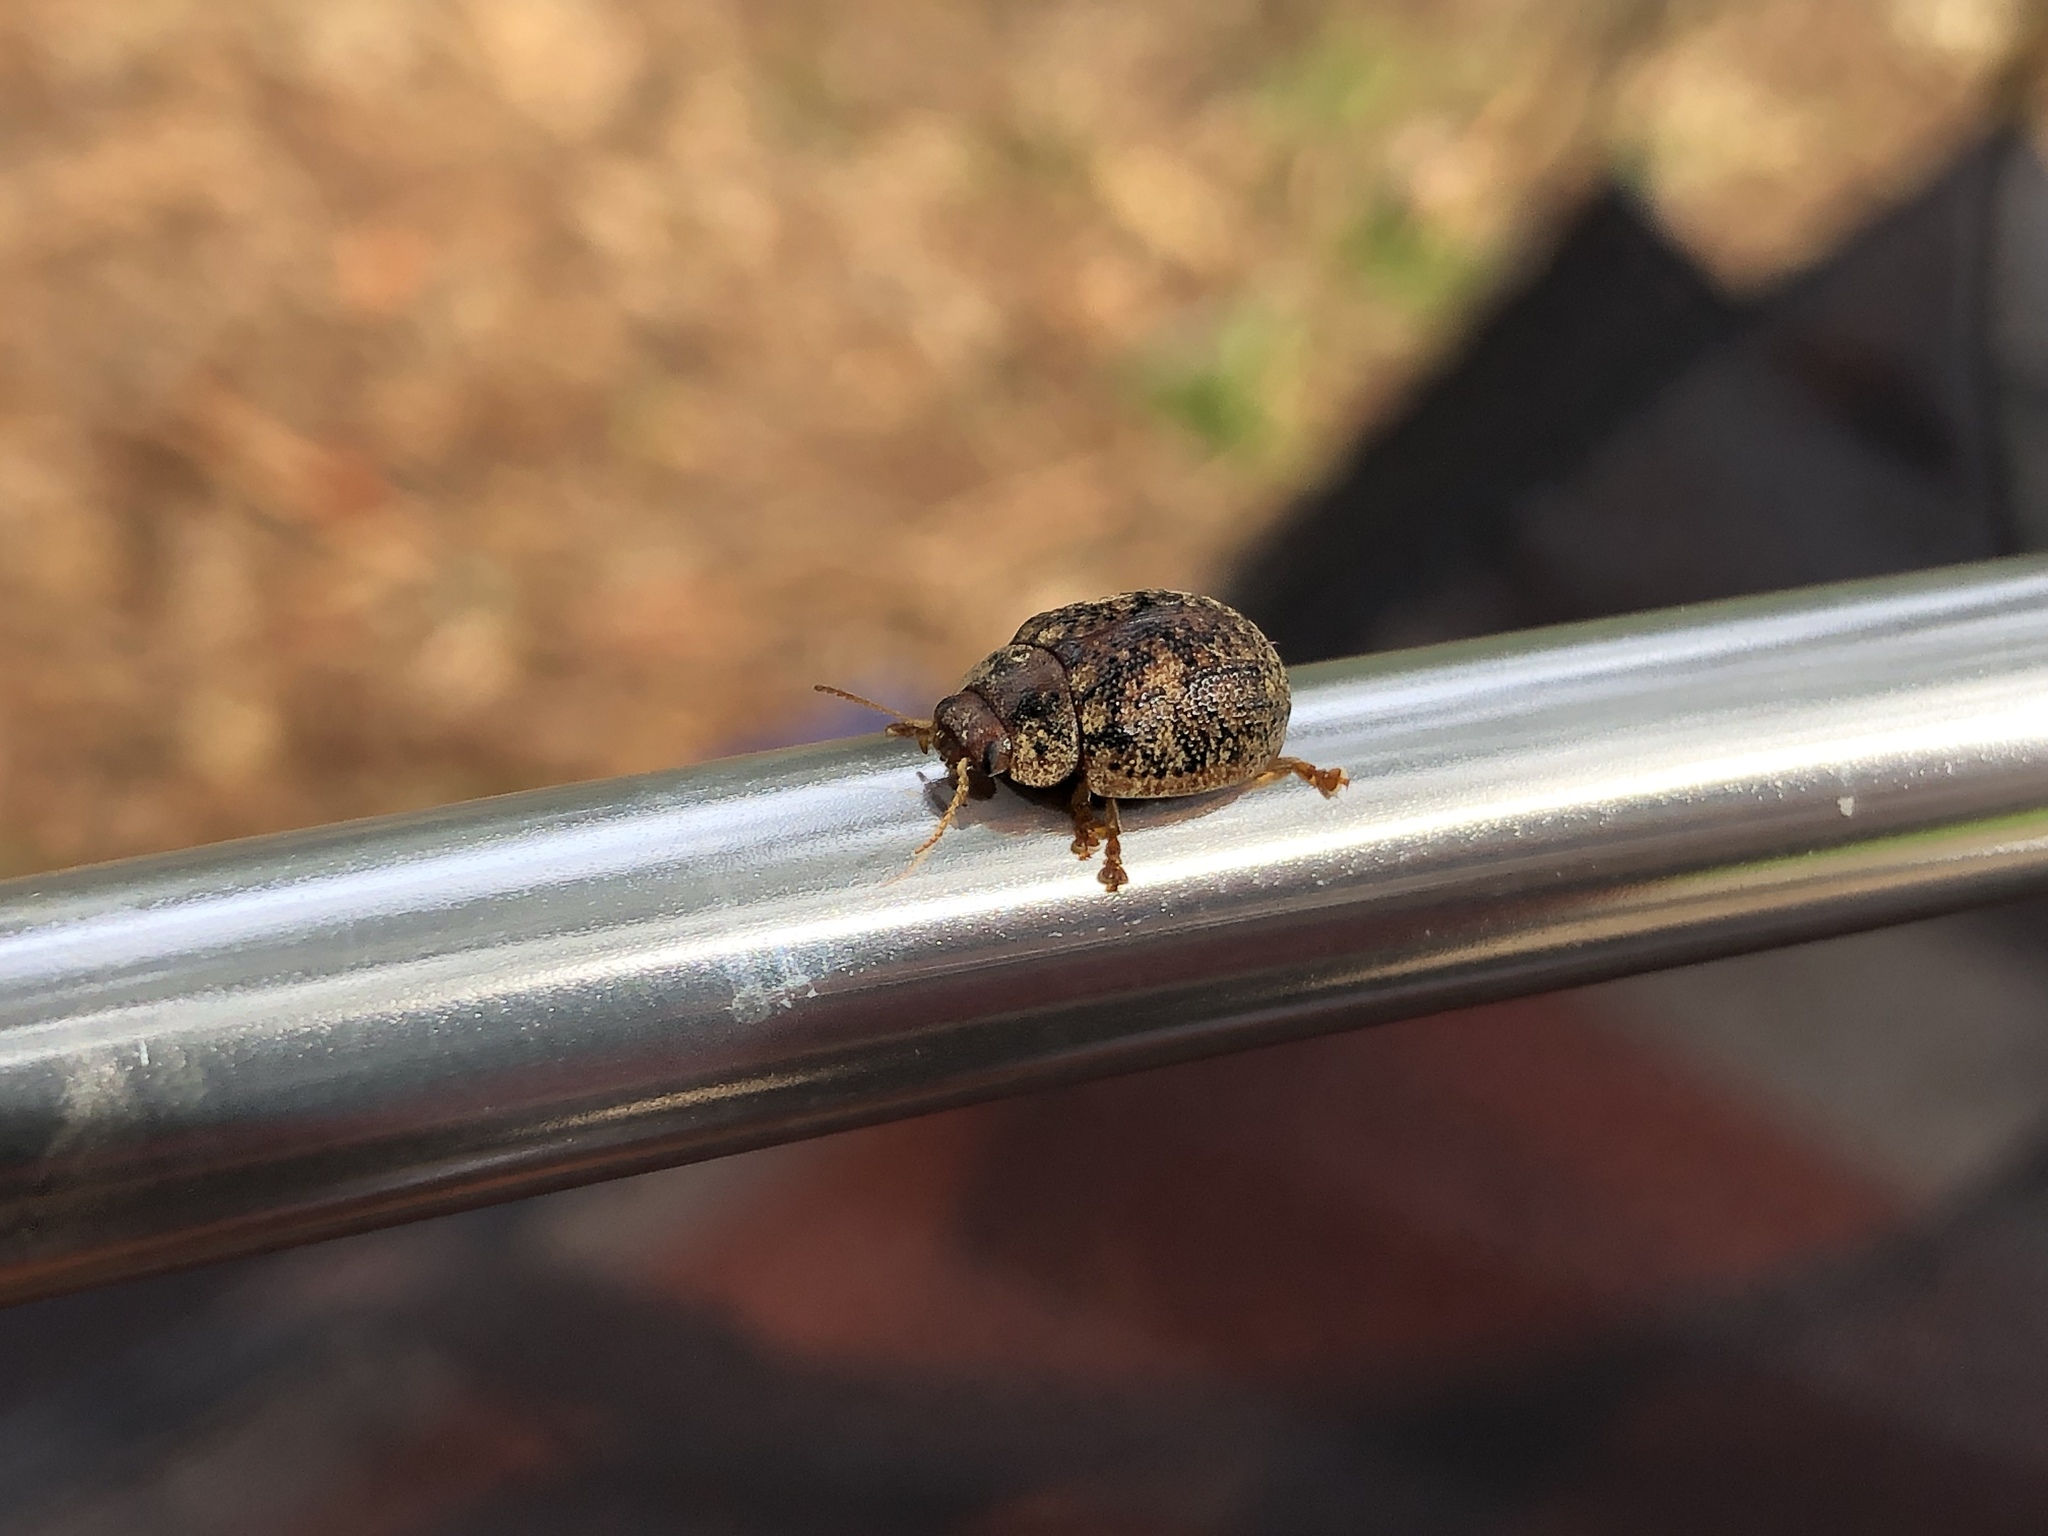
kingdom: Animalia
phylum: Arthropoda
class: Insecta
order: Coleoptera
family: Chrysomelidae
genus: Trachymela
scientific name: Trachymela sloanei
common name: Australian tortoise beetle
